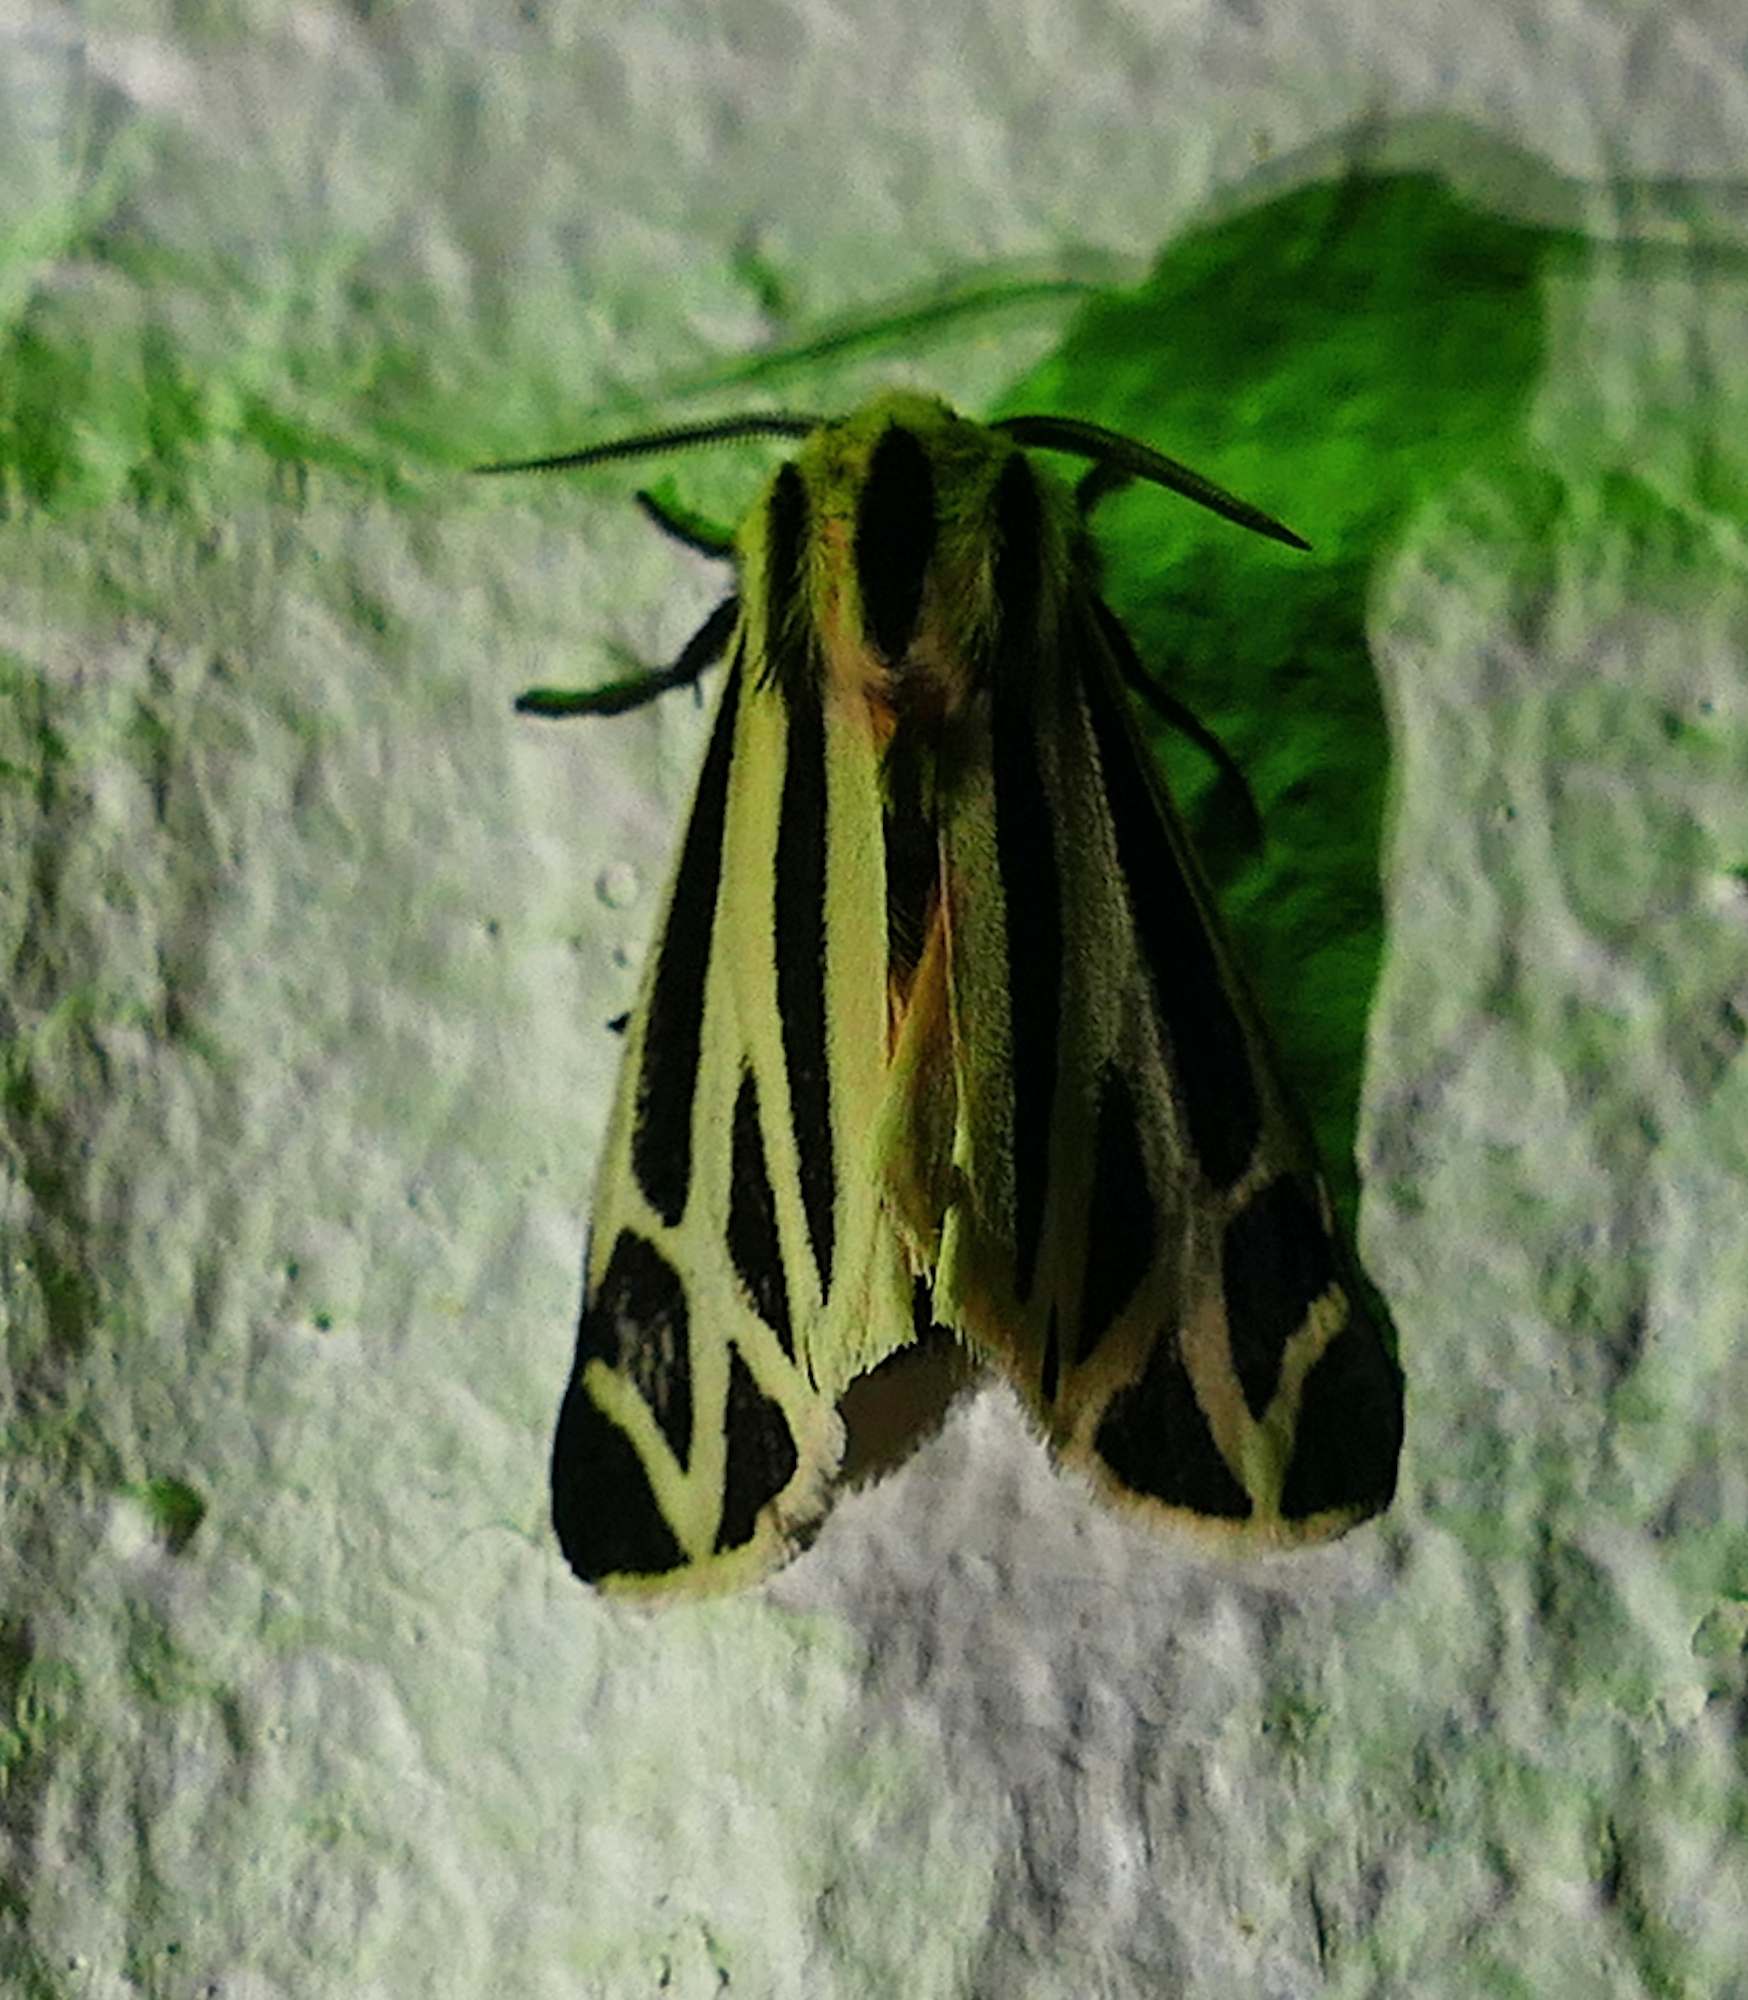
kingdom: Animalia
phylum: Arthropoda
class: Insecta
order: Lepidoptera
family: Erebidae
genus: Apantesis
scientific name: Apantesis phalerata
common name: Harnessed tiger moth
